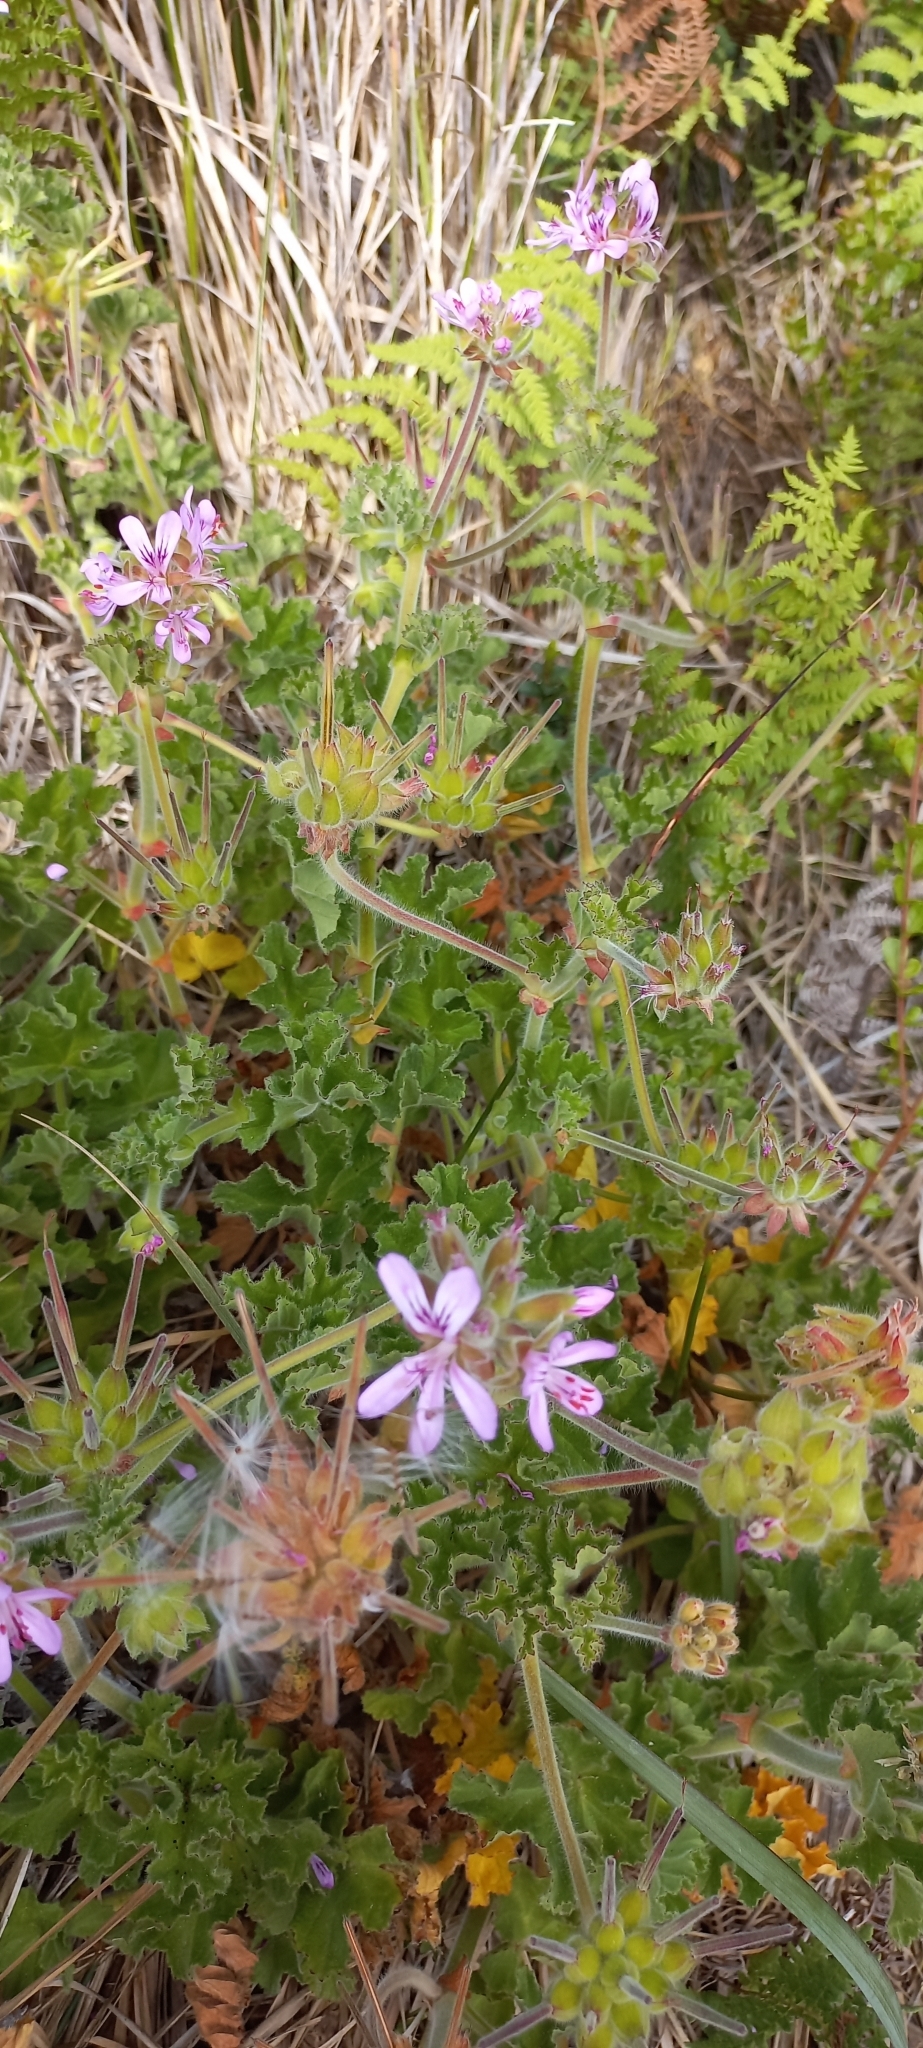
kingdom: Plantae
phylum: Tracheophyta
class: Magnoliopsida
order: Geraniales
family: Geraniaceae
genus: Pelargonium
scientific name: Pelargonium capitatum
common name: Rose scented geranium
